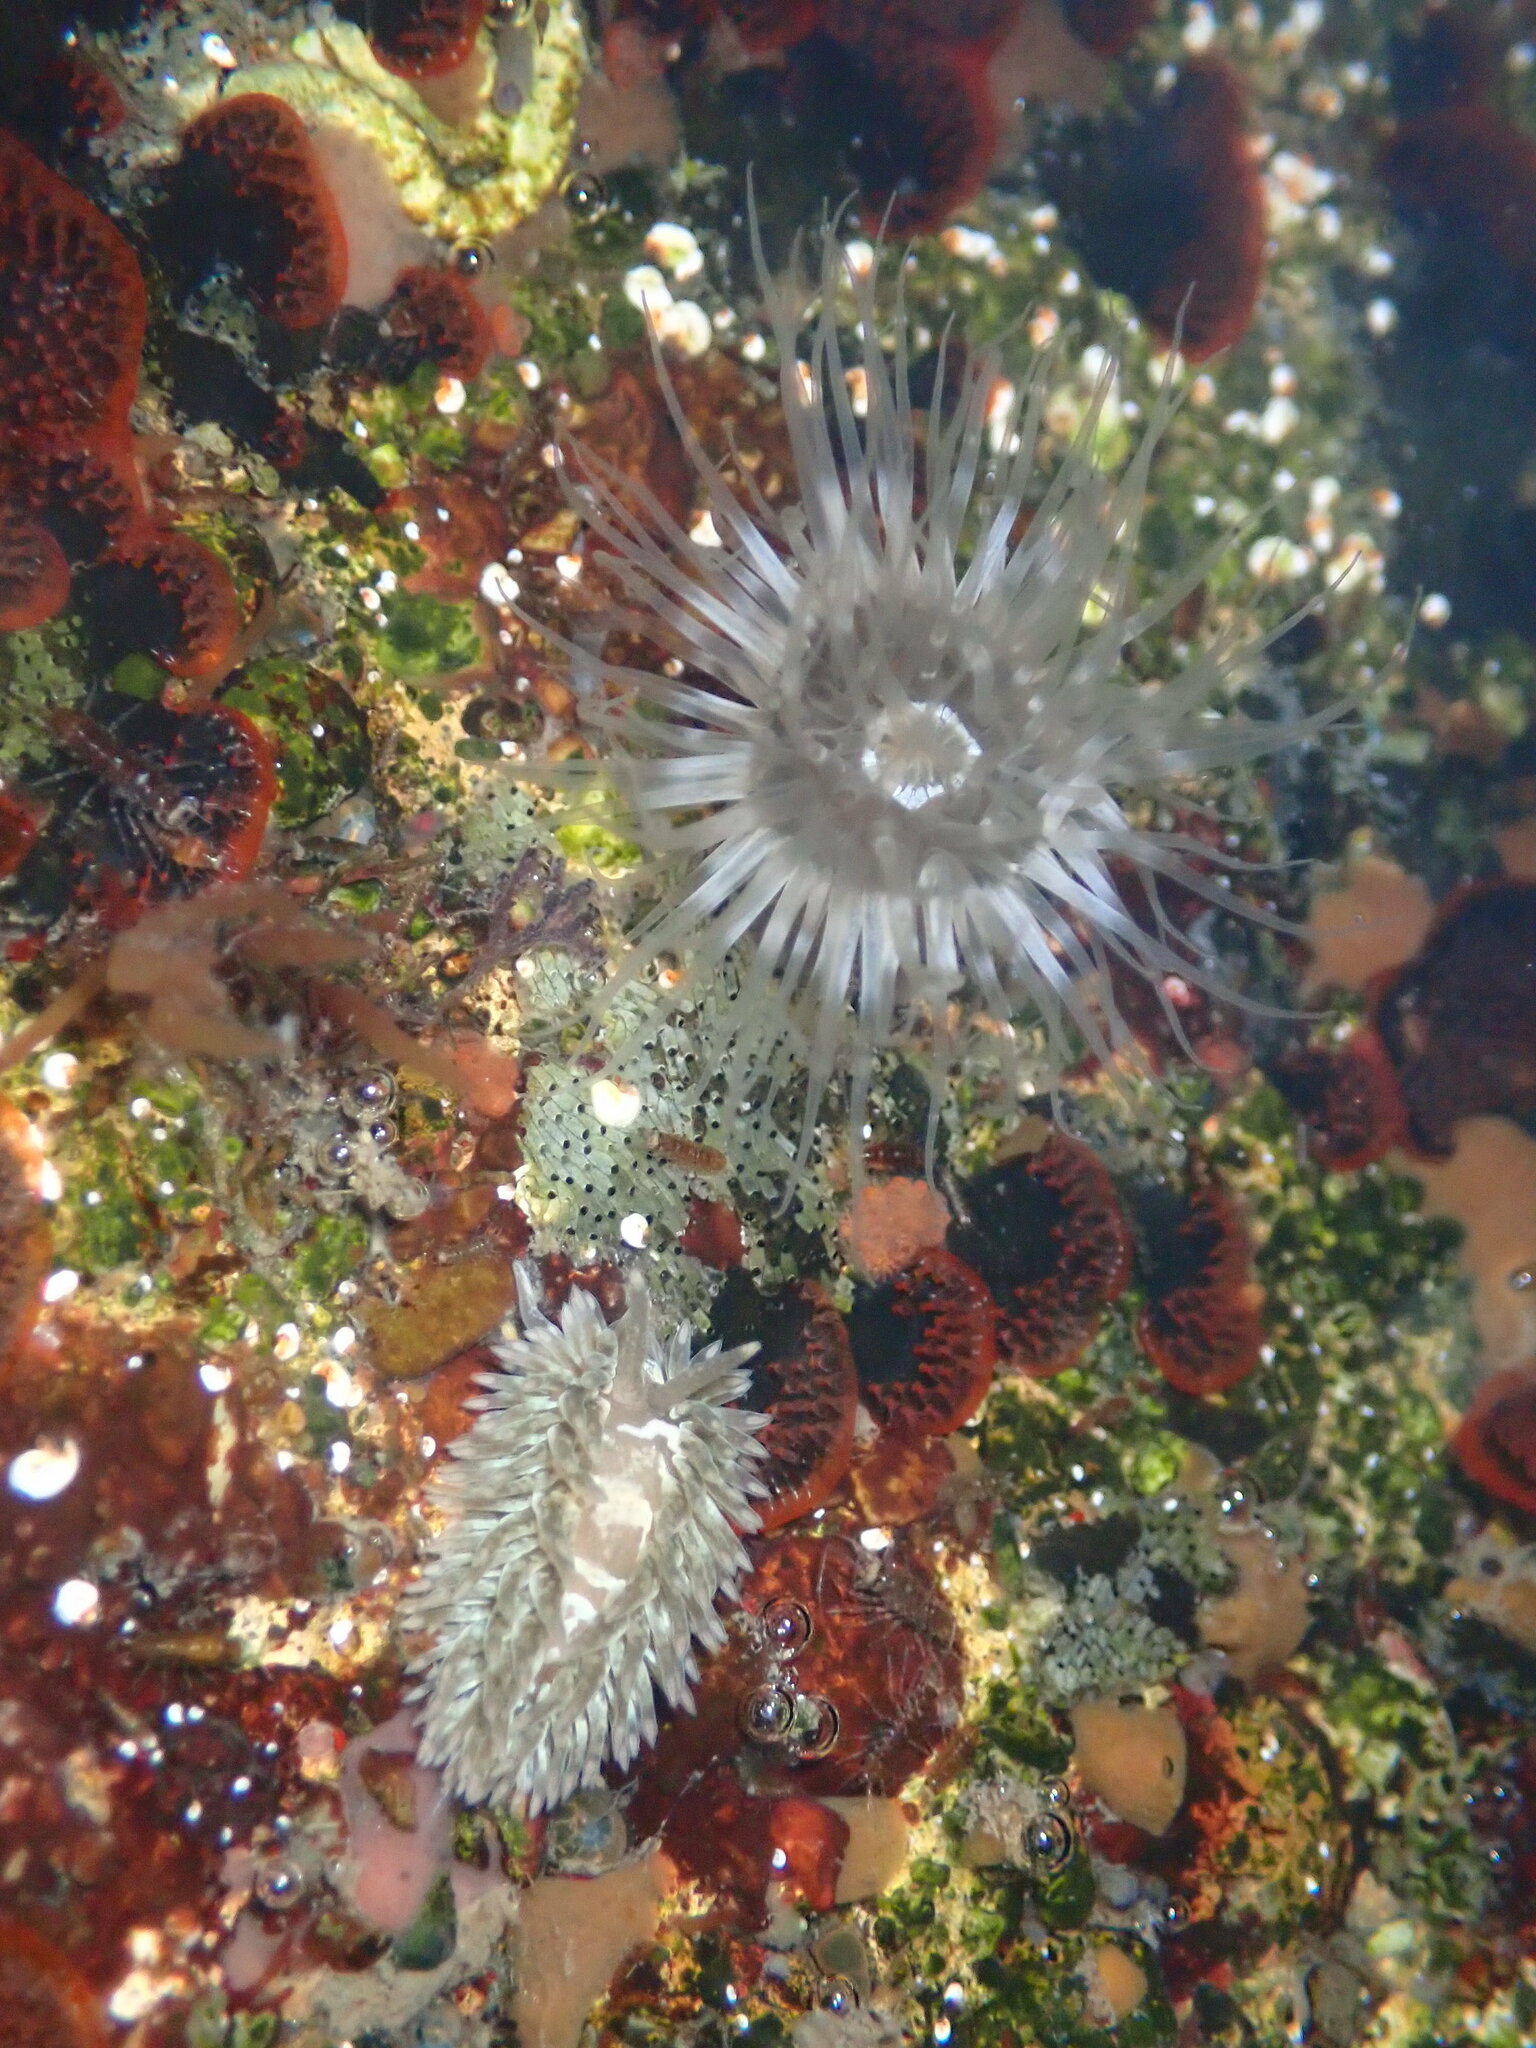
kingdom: Animalia
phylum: Mollusca
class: Gastropoda
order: Nudibranchia
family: Aeolidiidae
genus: Aeolidia
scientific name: Aeolidia loui
